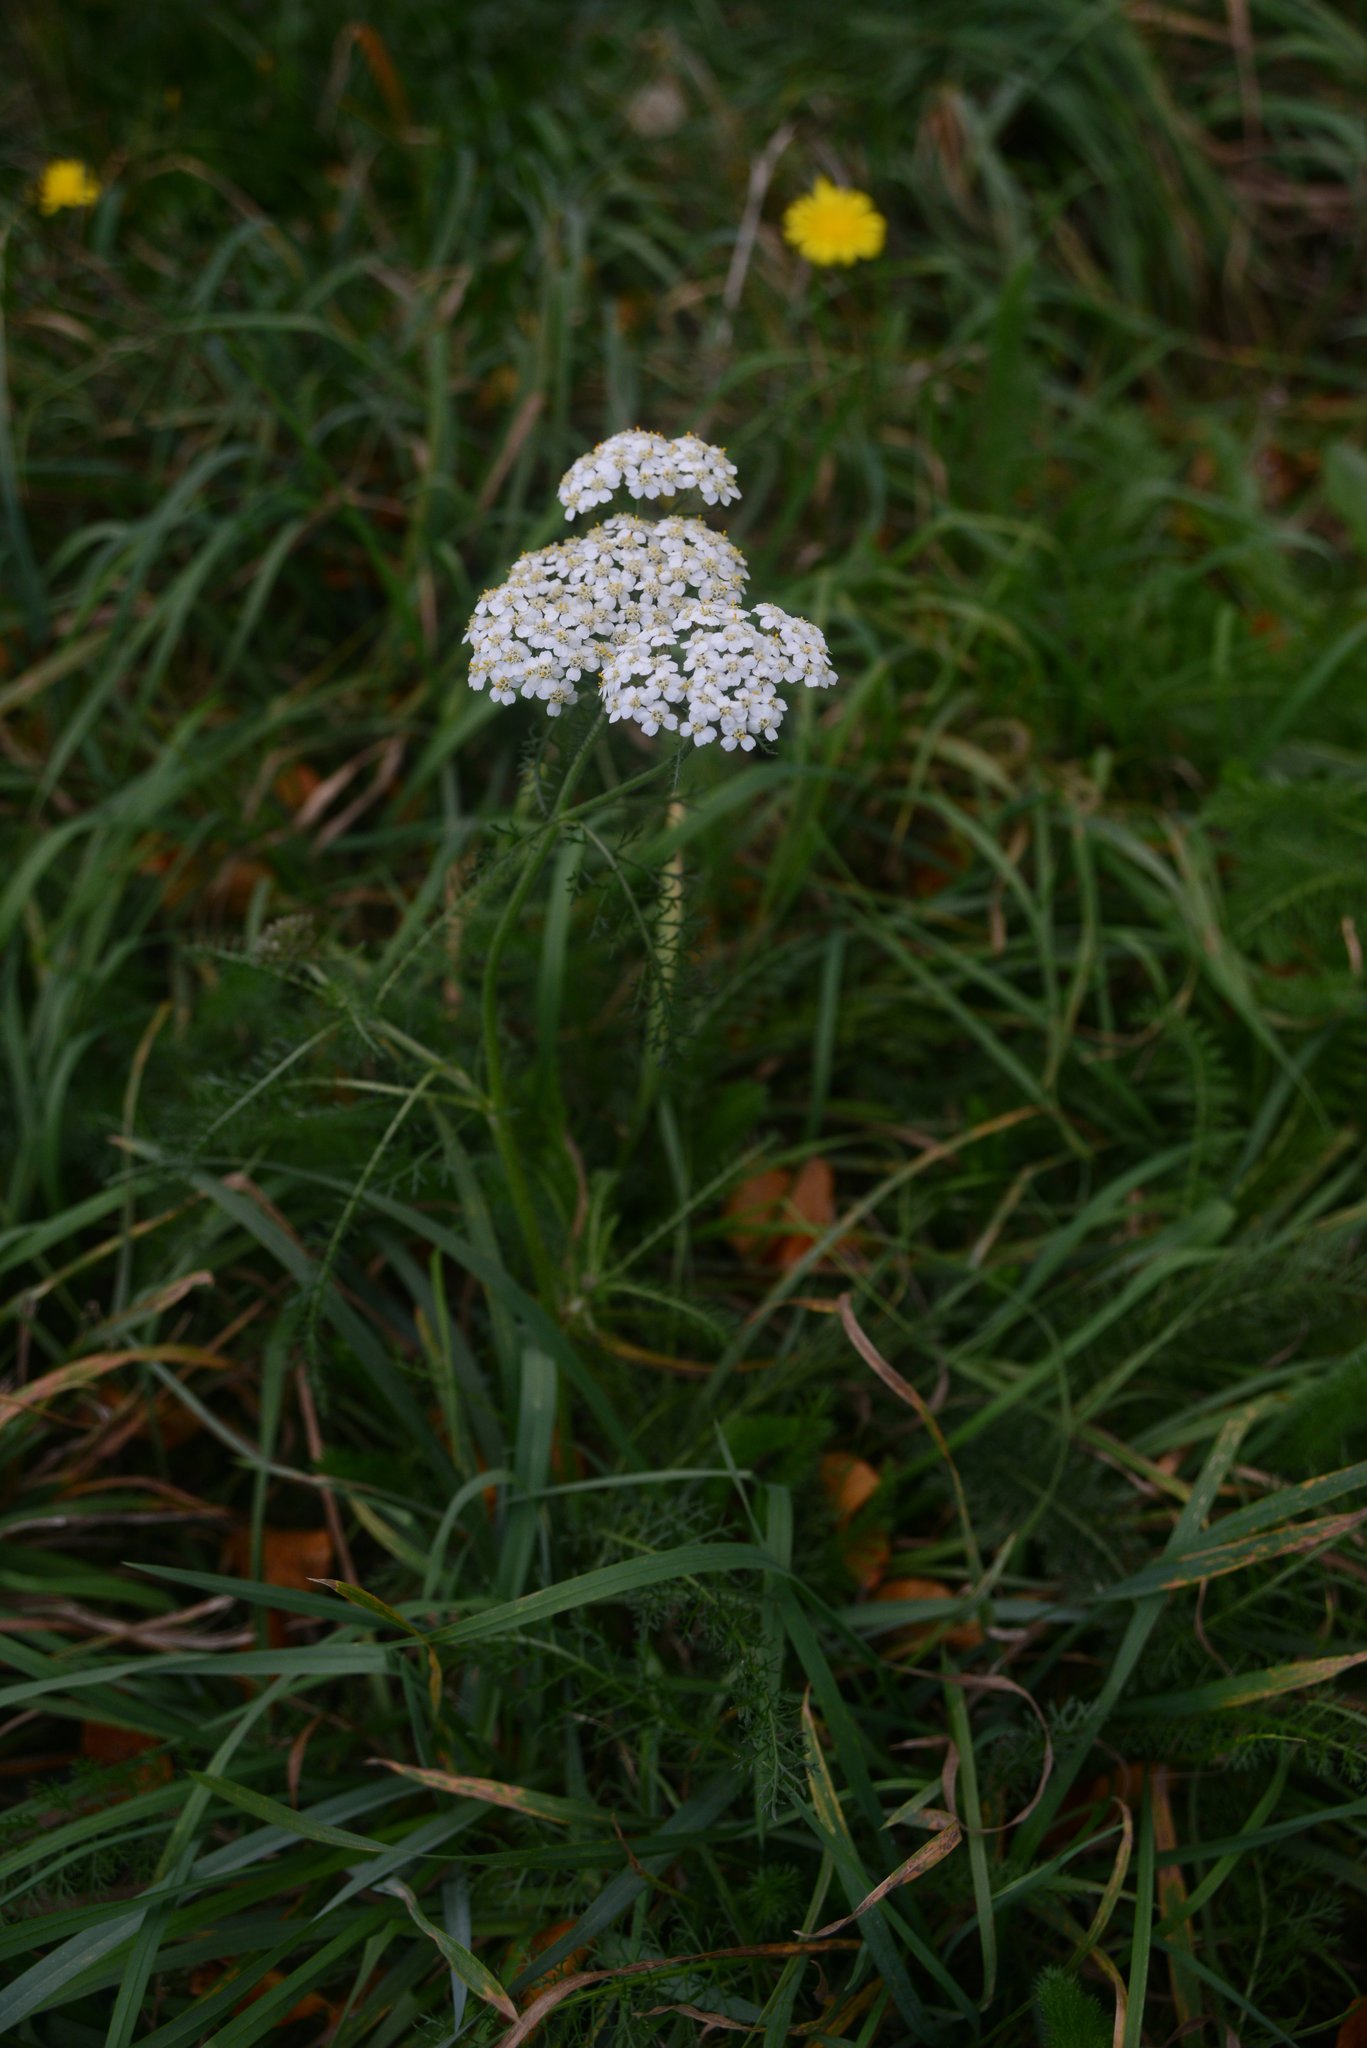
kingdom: Plantae
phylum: Tracheophyta
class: Magnoliopsida
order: Asterales
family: Asteraceae
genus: Achillea
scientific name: Achillea millefolium
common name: Yarrow
